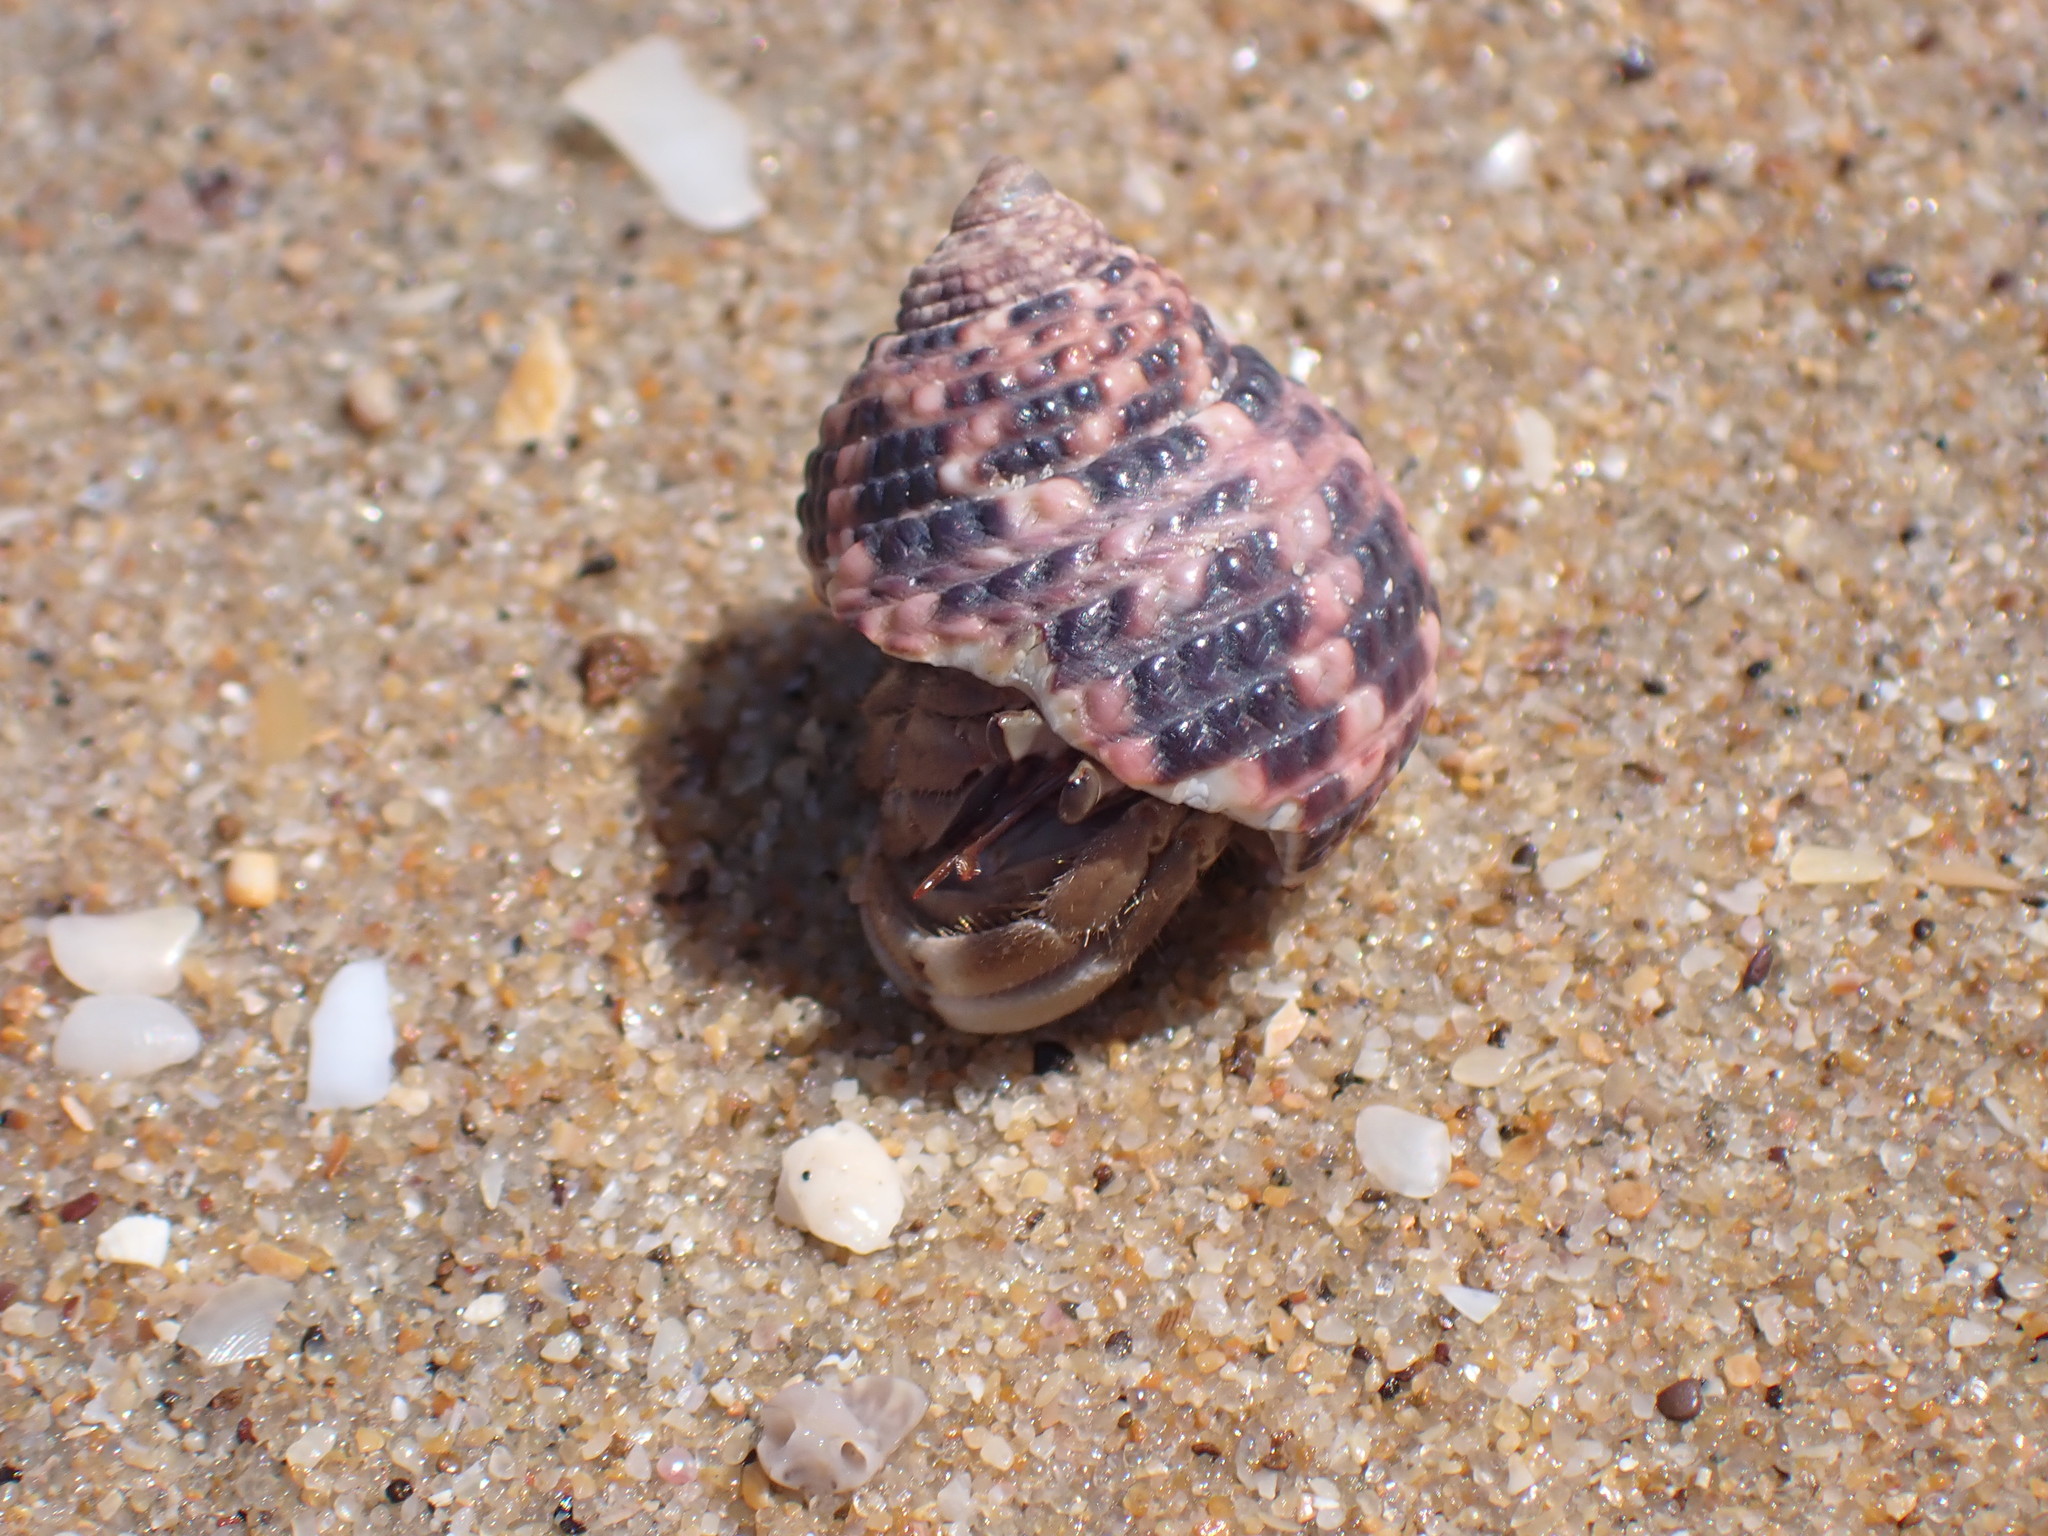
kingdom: Animalia
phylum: Arthropoda
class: Malacostraca
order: Decapoda
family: Coenobitidae
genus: Coenobita
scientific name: Coenobita rugosus
